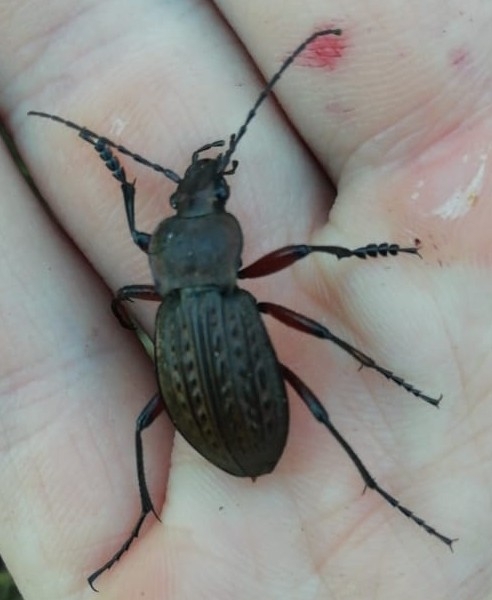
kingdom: Animalia
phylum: Arthropoda
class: Insecta
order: Coleoptera
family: Carabidae
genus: Carabus
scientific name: Carabus cancellatus
